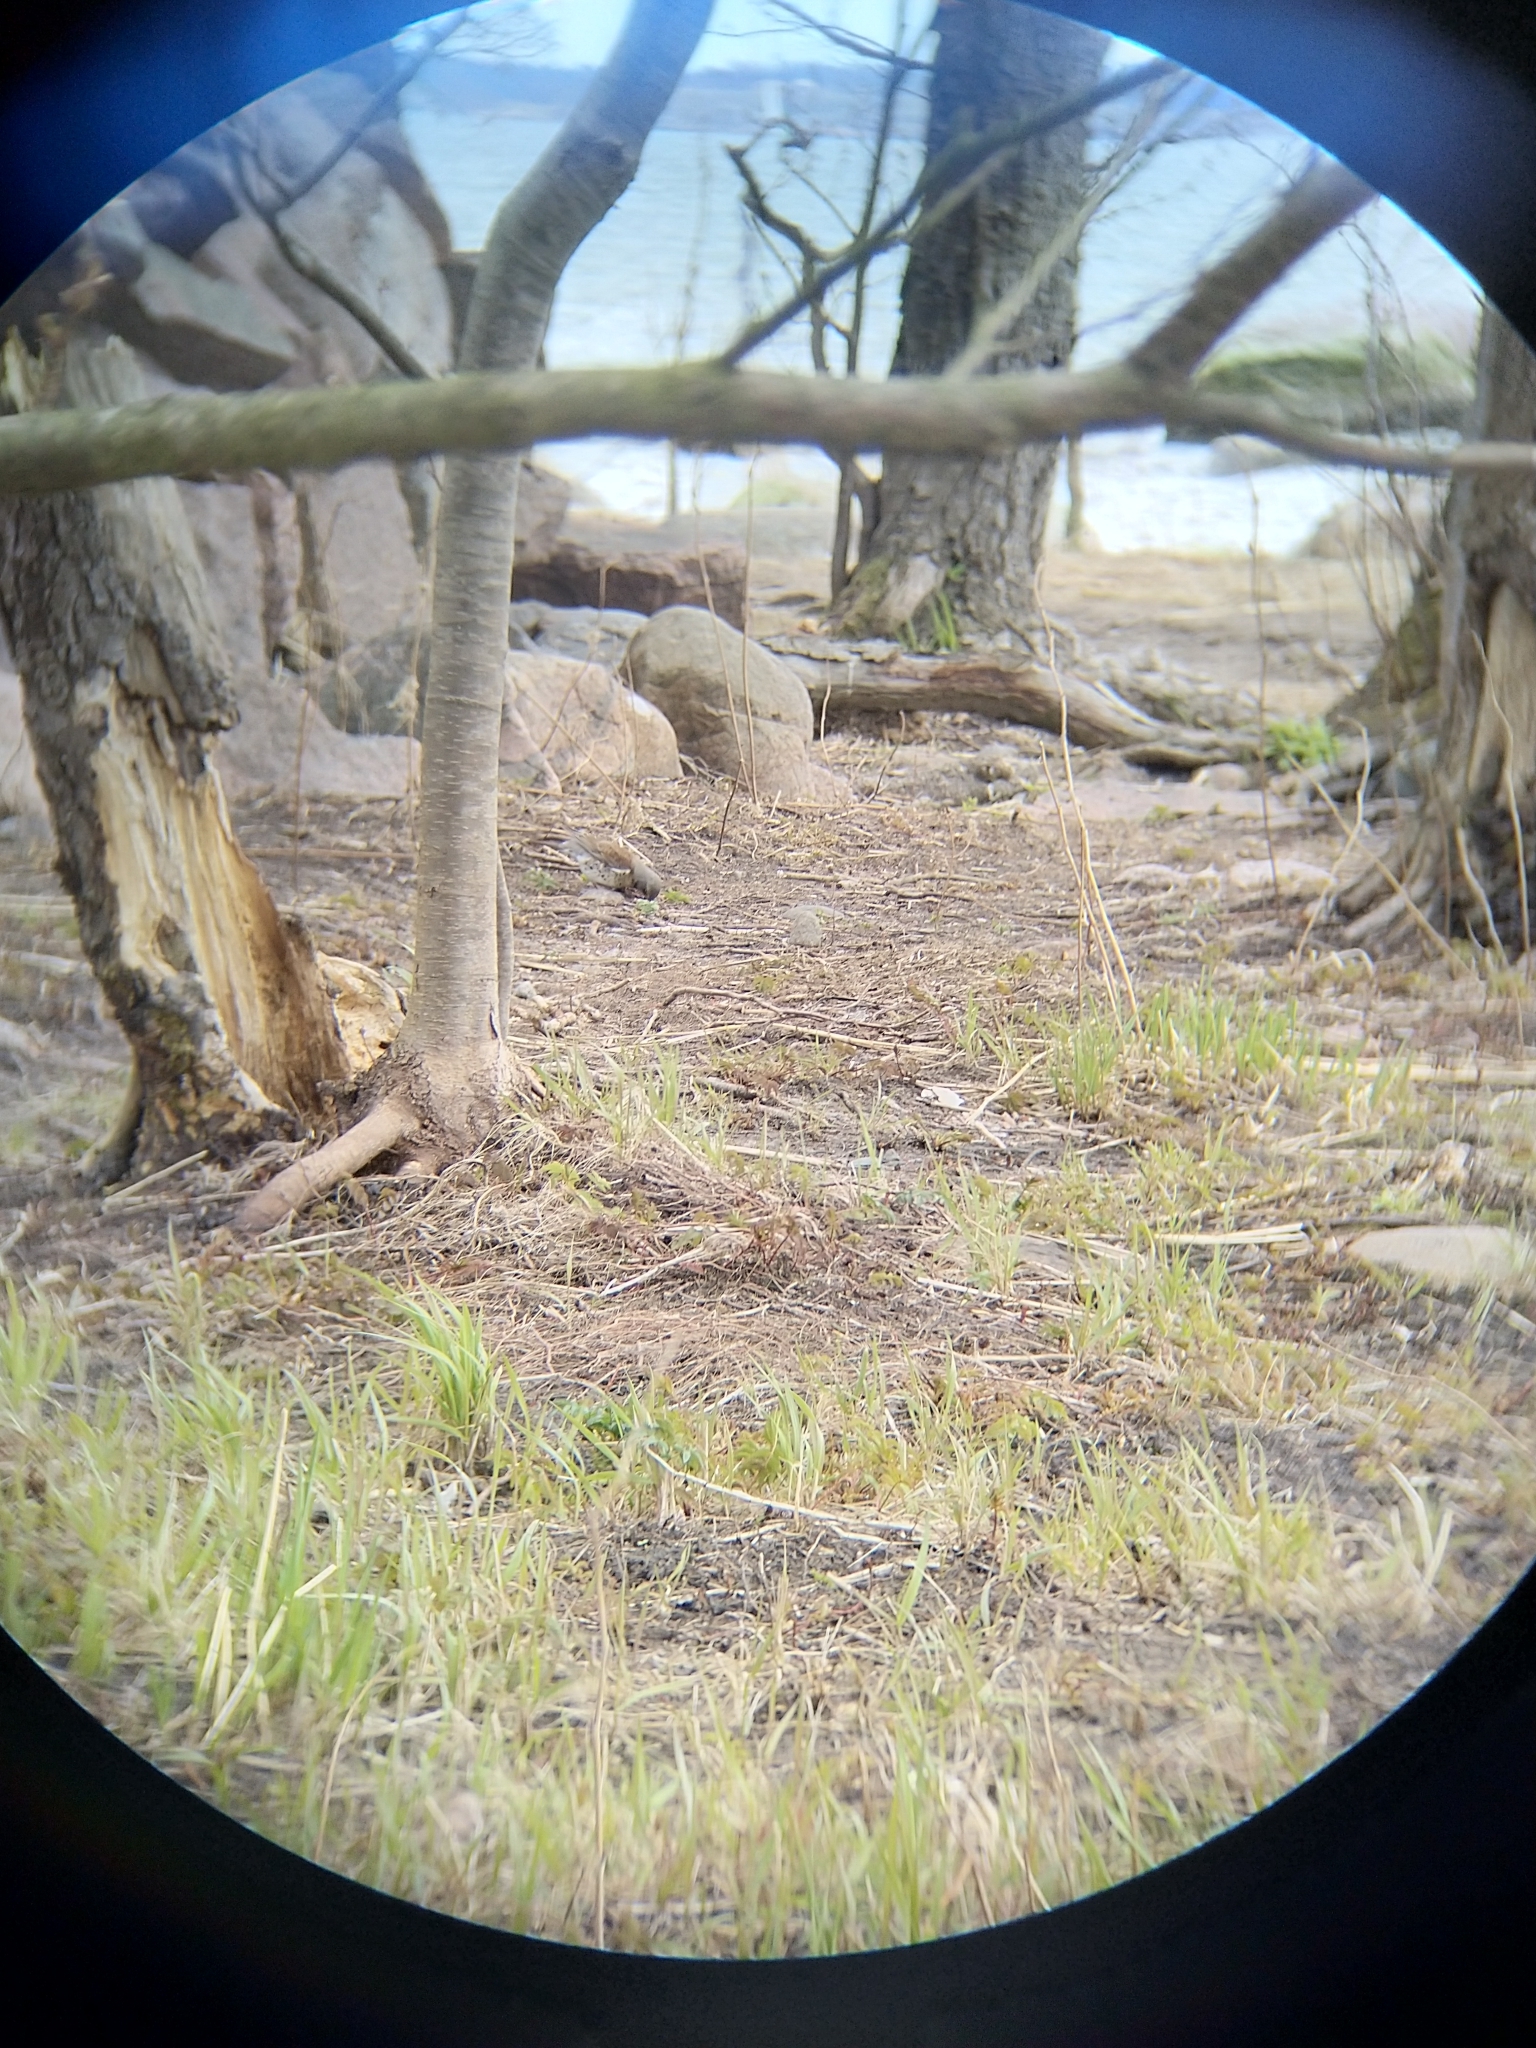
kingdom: Animalia
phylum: Chordata
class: Aves
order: Passeriformes
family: Turdidae
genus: Turdus
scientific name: Turdus pilaris
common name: Fieldfare
